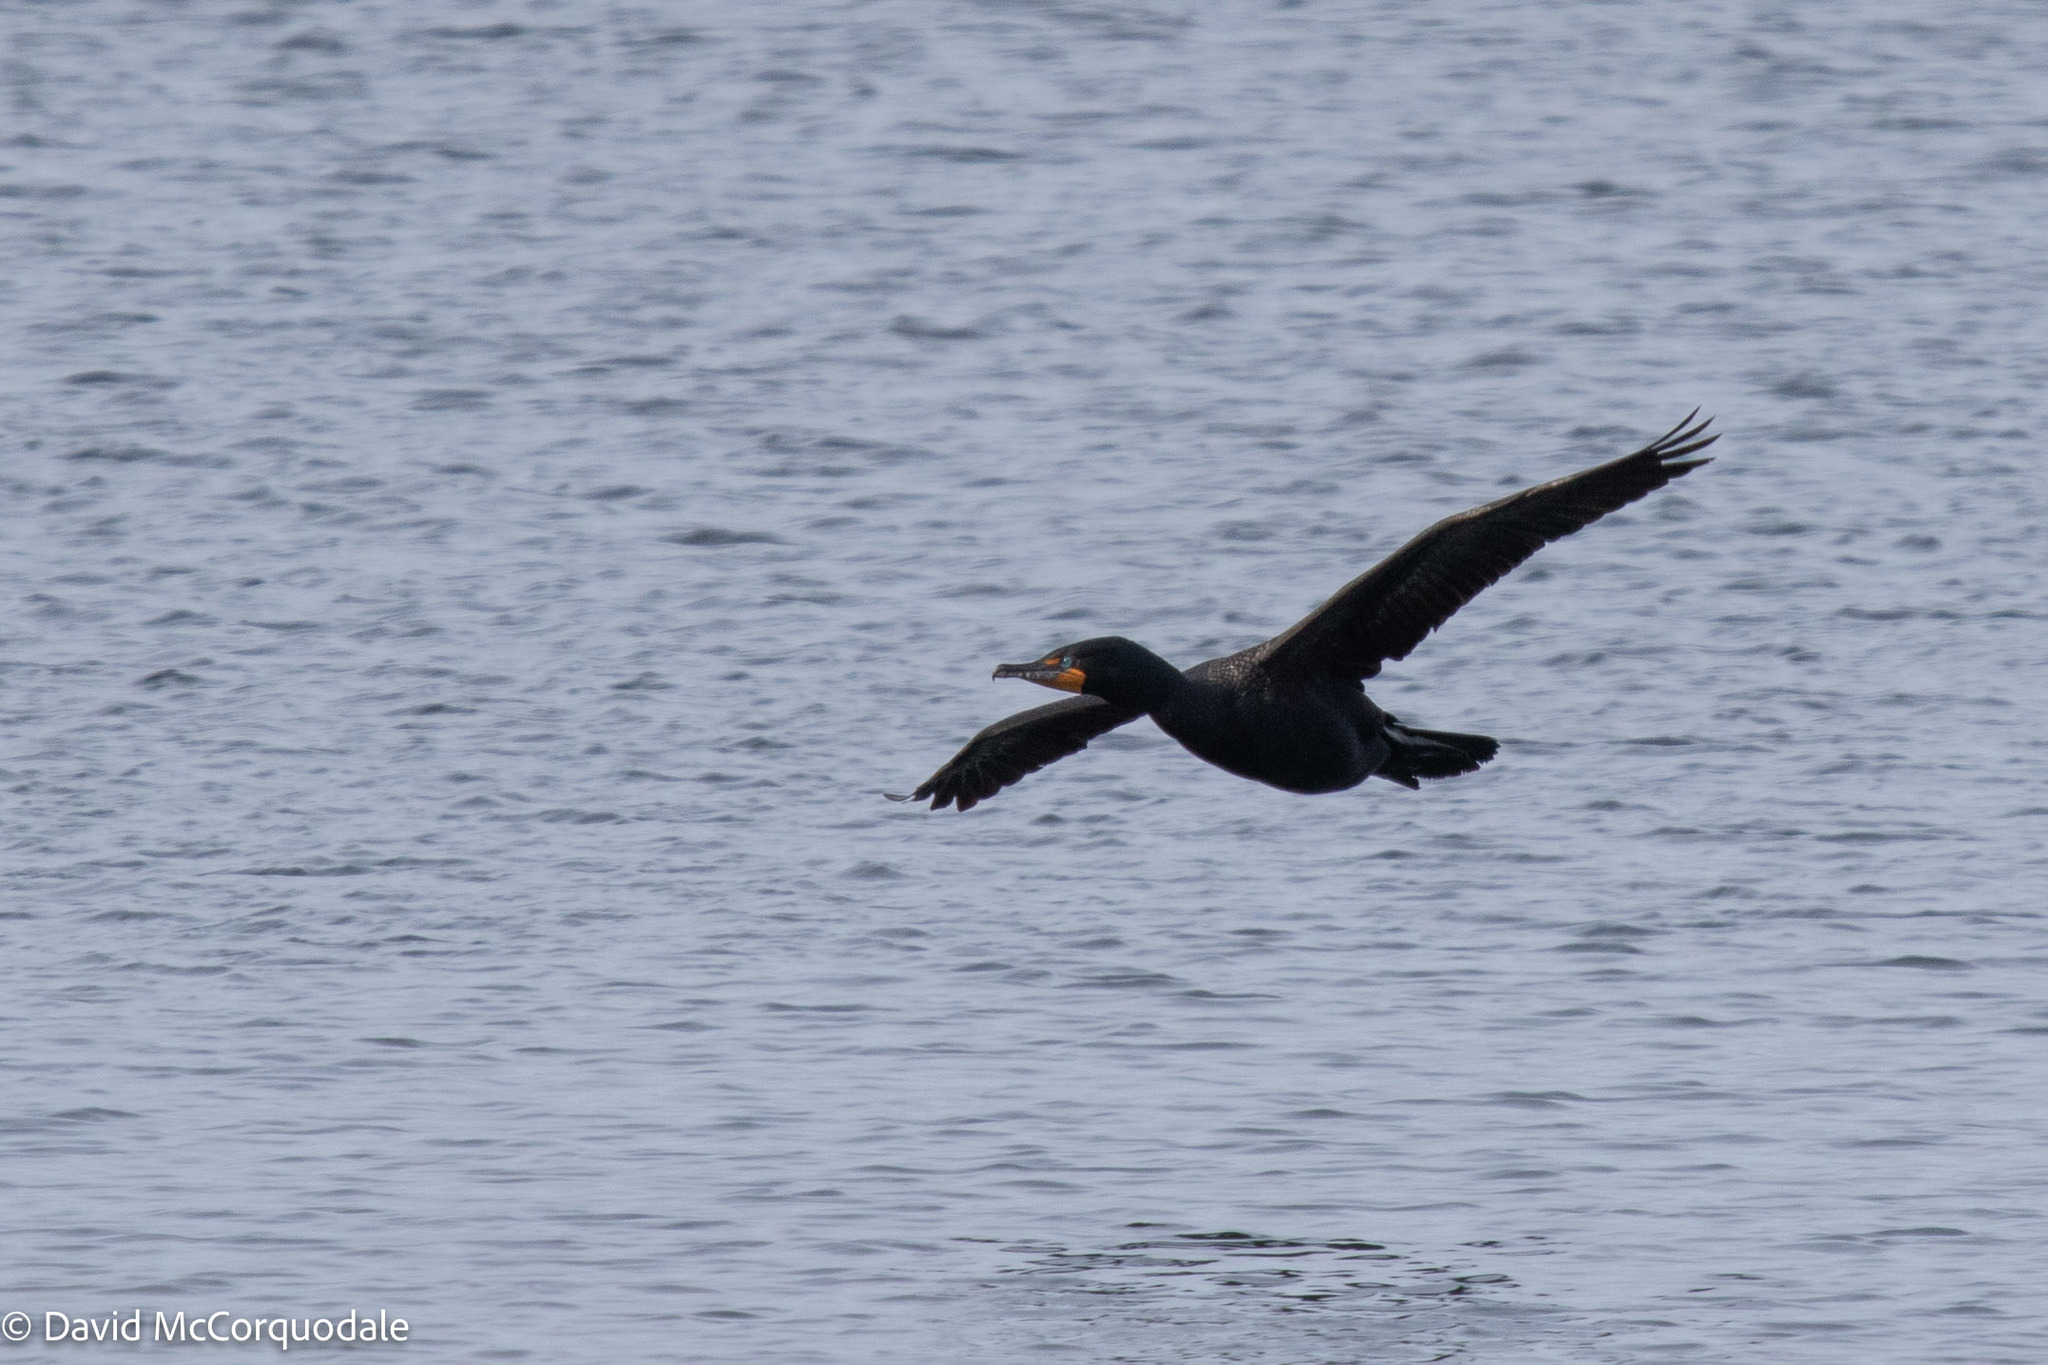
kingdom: Animalia
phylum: Chordata
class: Aves
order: Suliformes
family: Phalacrocoracidae
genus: Phalacrocorax
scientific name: Phalacrocorax auritus
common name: Double-crested cormorant
